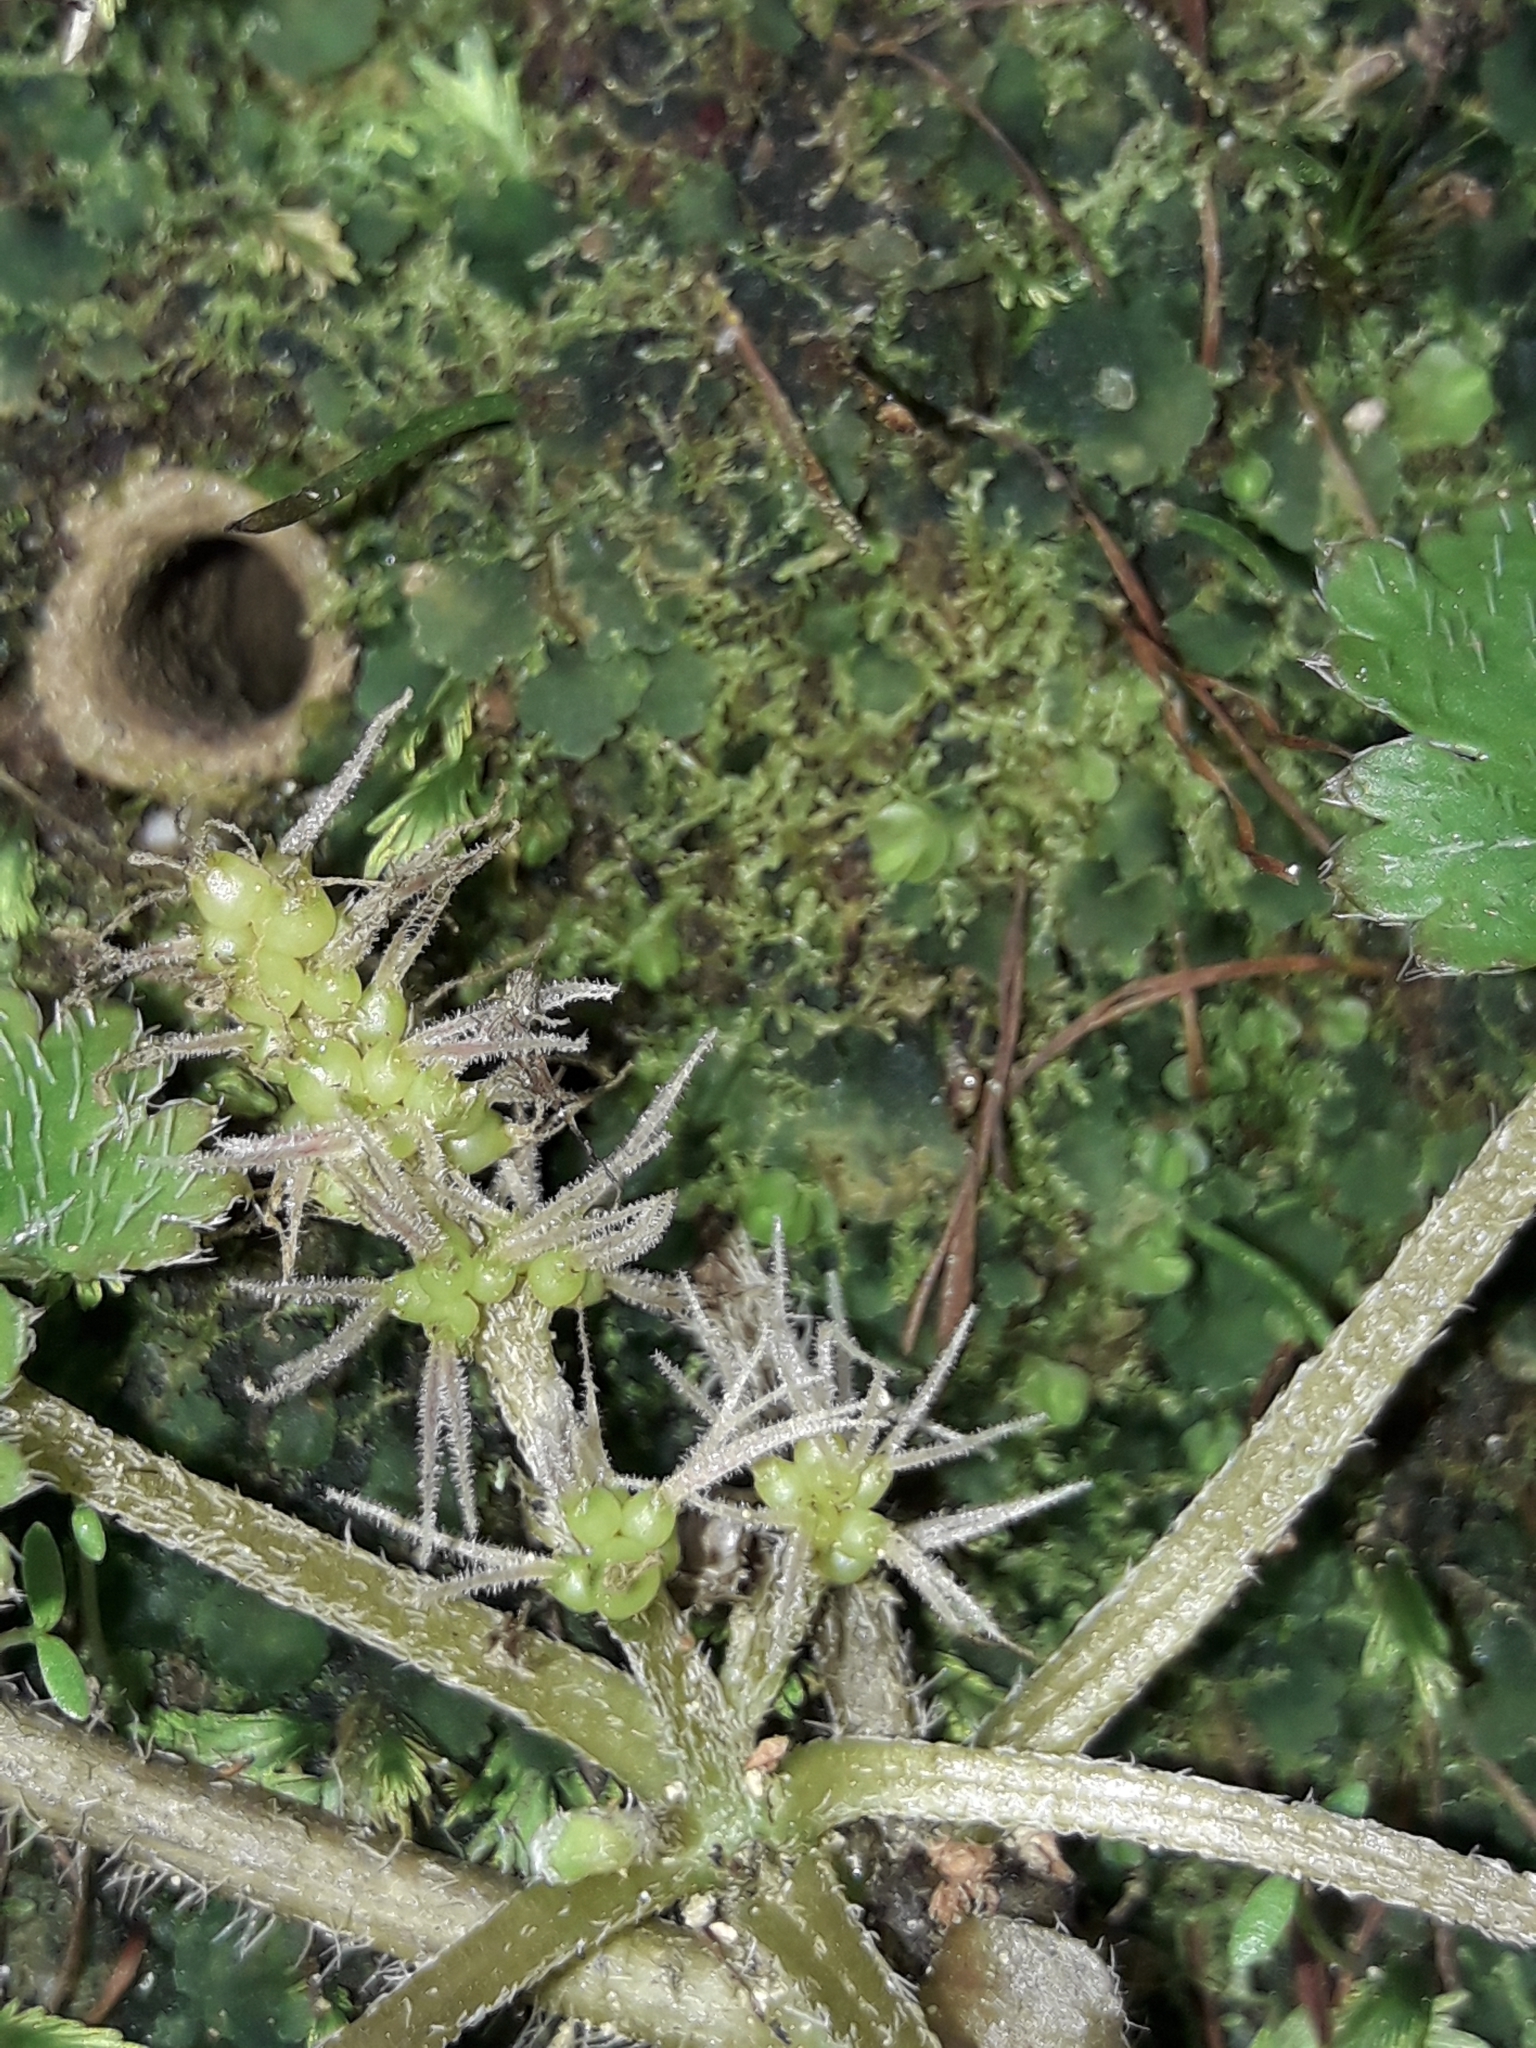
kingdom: Plantae
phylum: Tracheophyta
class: Magnoliopsida
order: Gunnerales
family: Gunneraceae
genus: Gunnera
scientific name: Gunnera monoica
